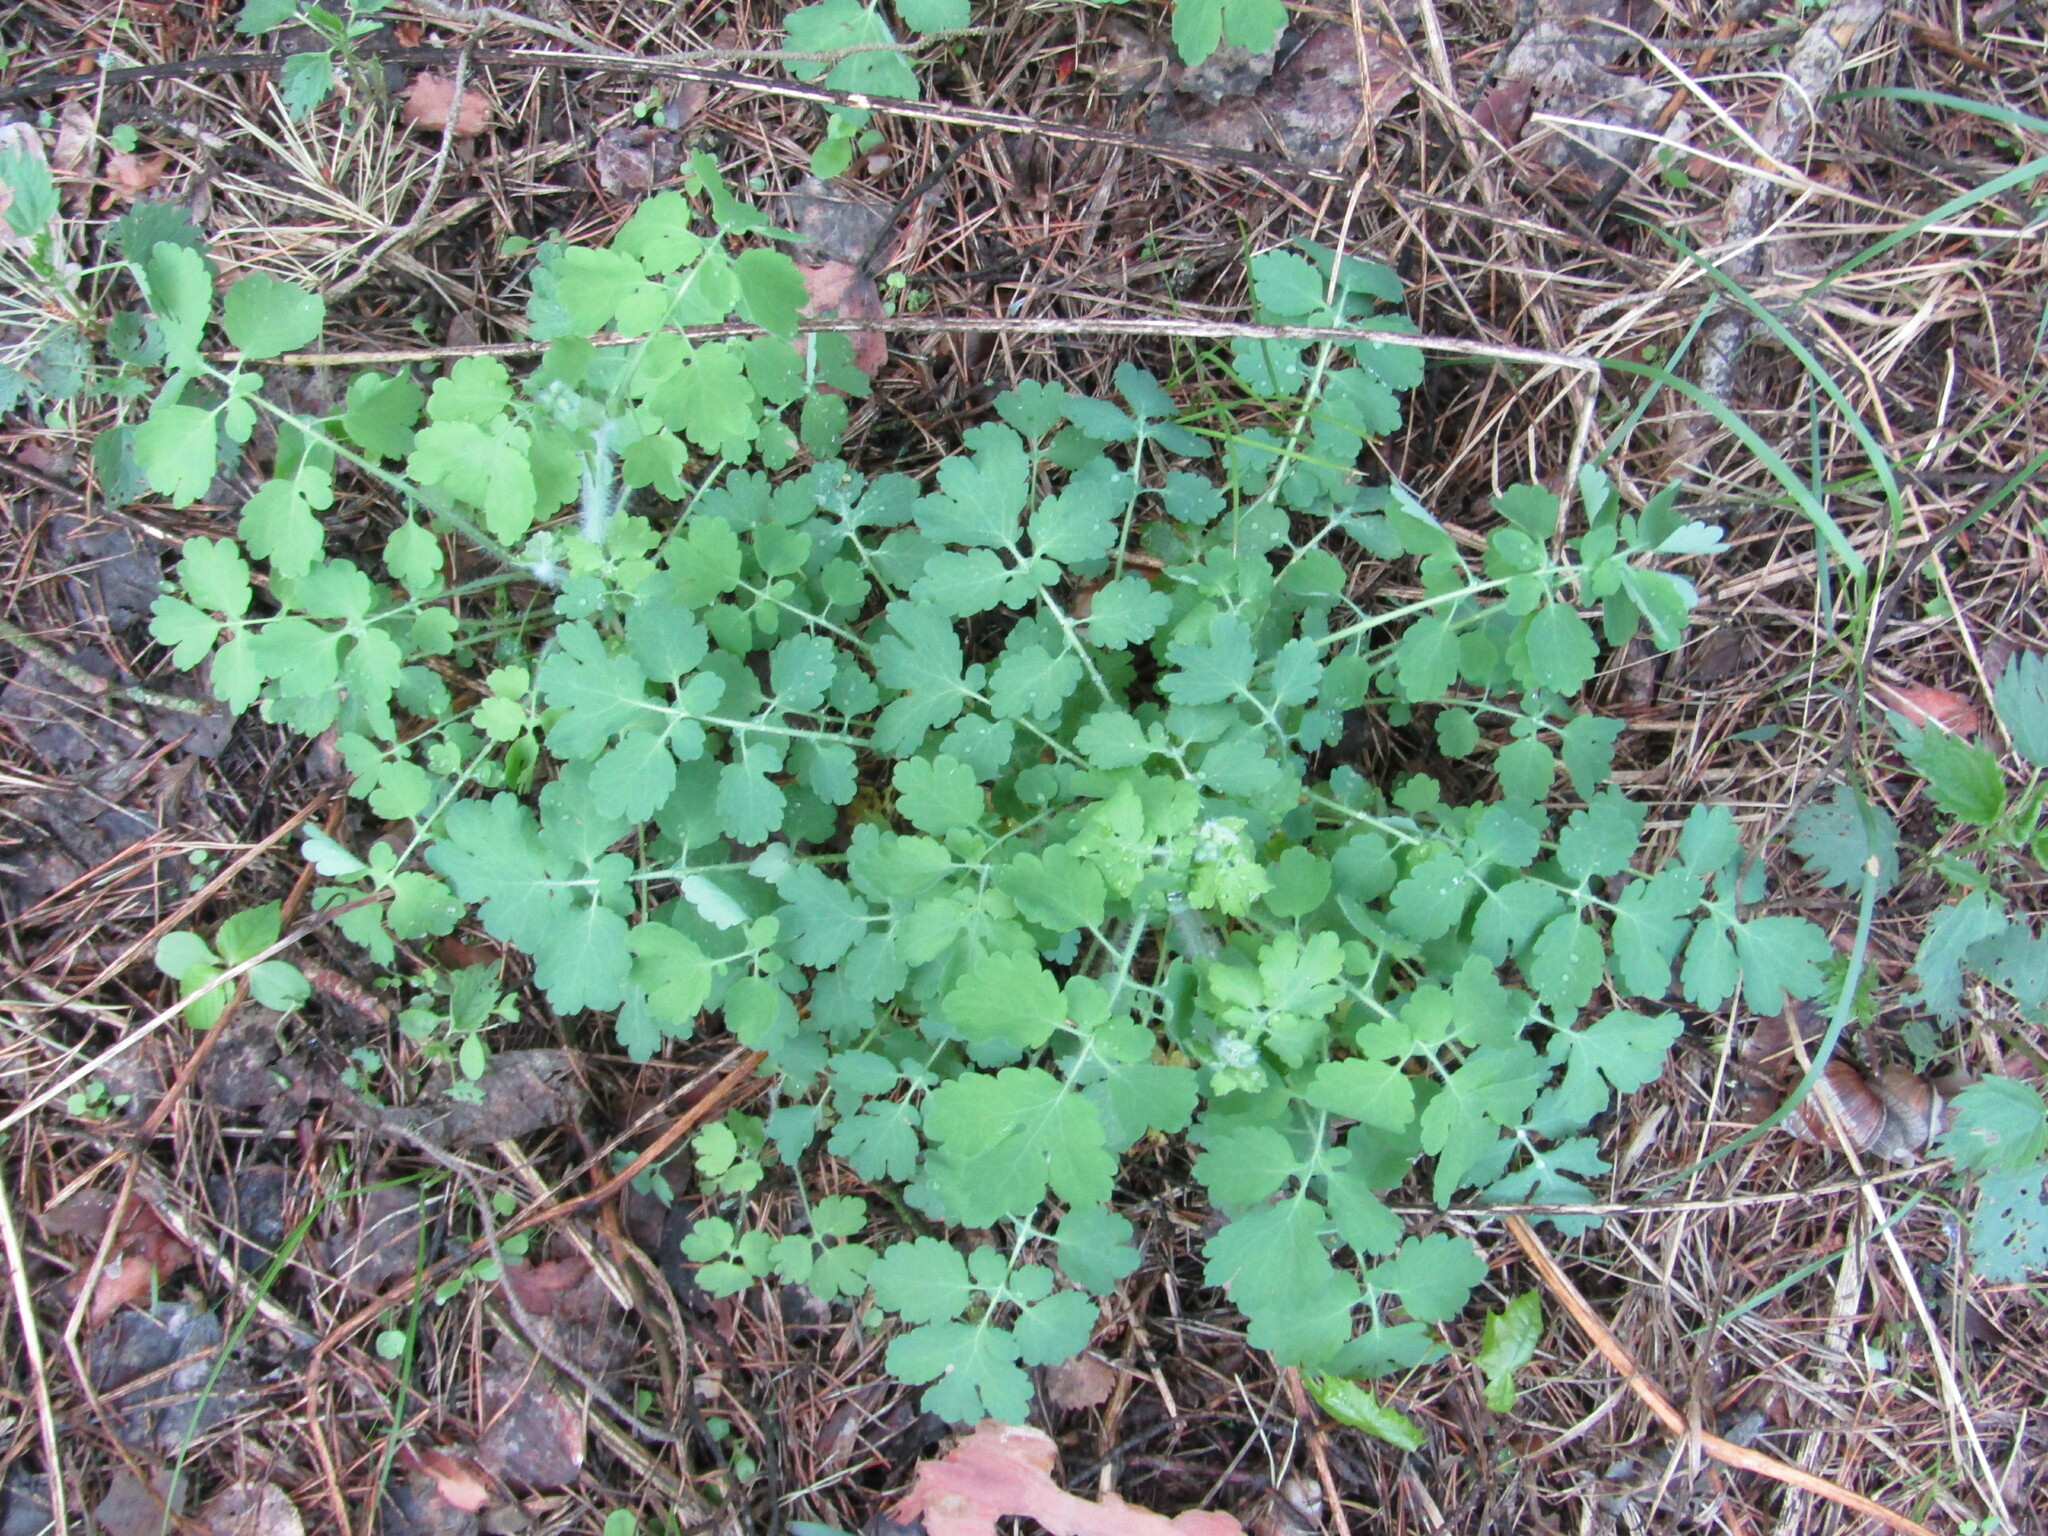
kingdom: Plantae
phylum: Tracheophyta
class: Magnoliopsida
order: Ranunculales
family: Papaveraceae
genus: Chelidonium
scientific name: Chelidonium majus
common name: Greater celandine
